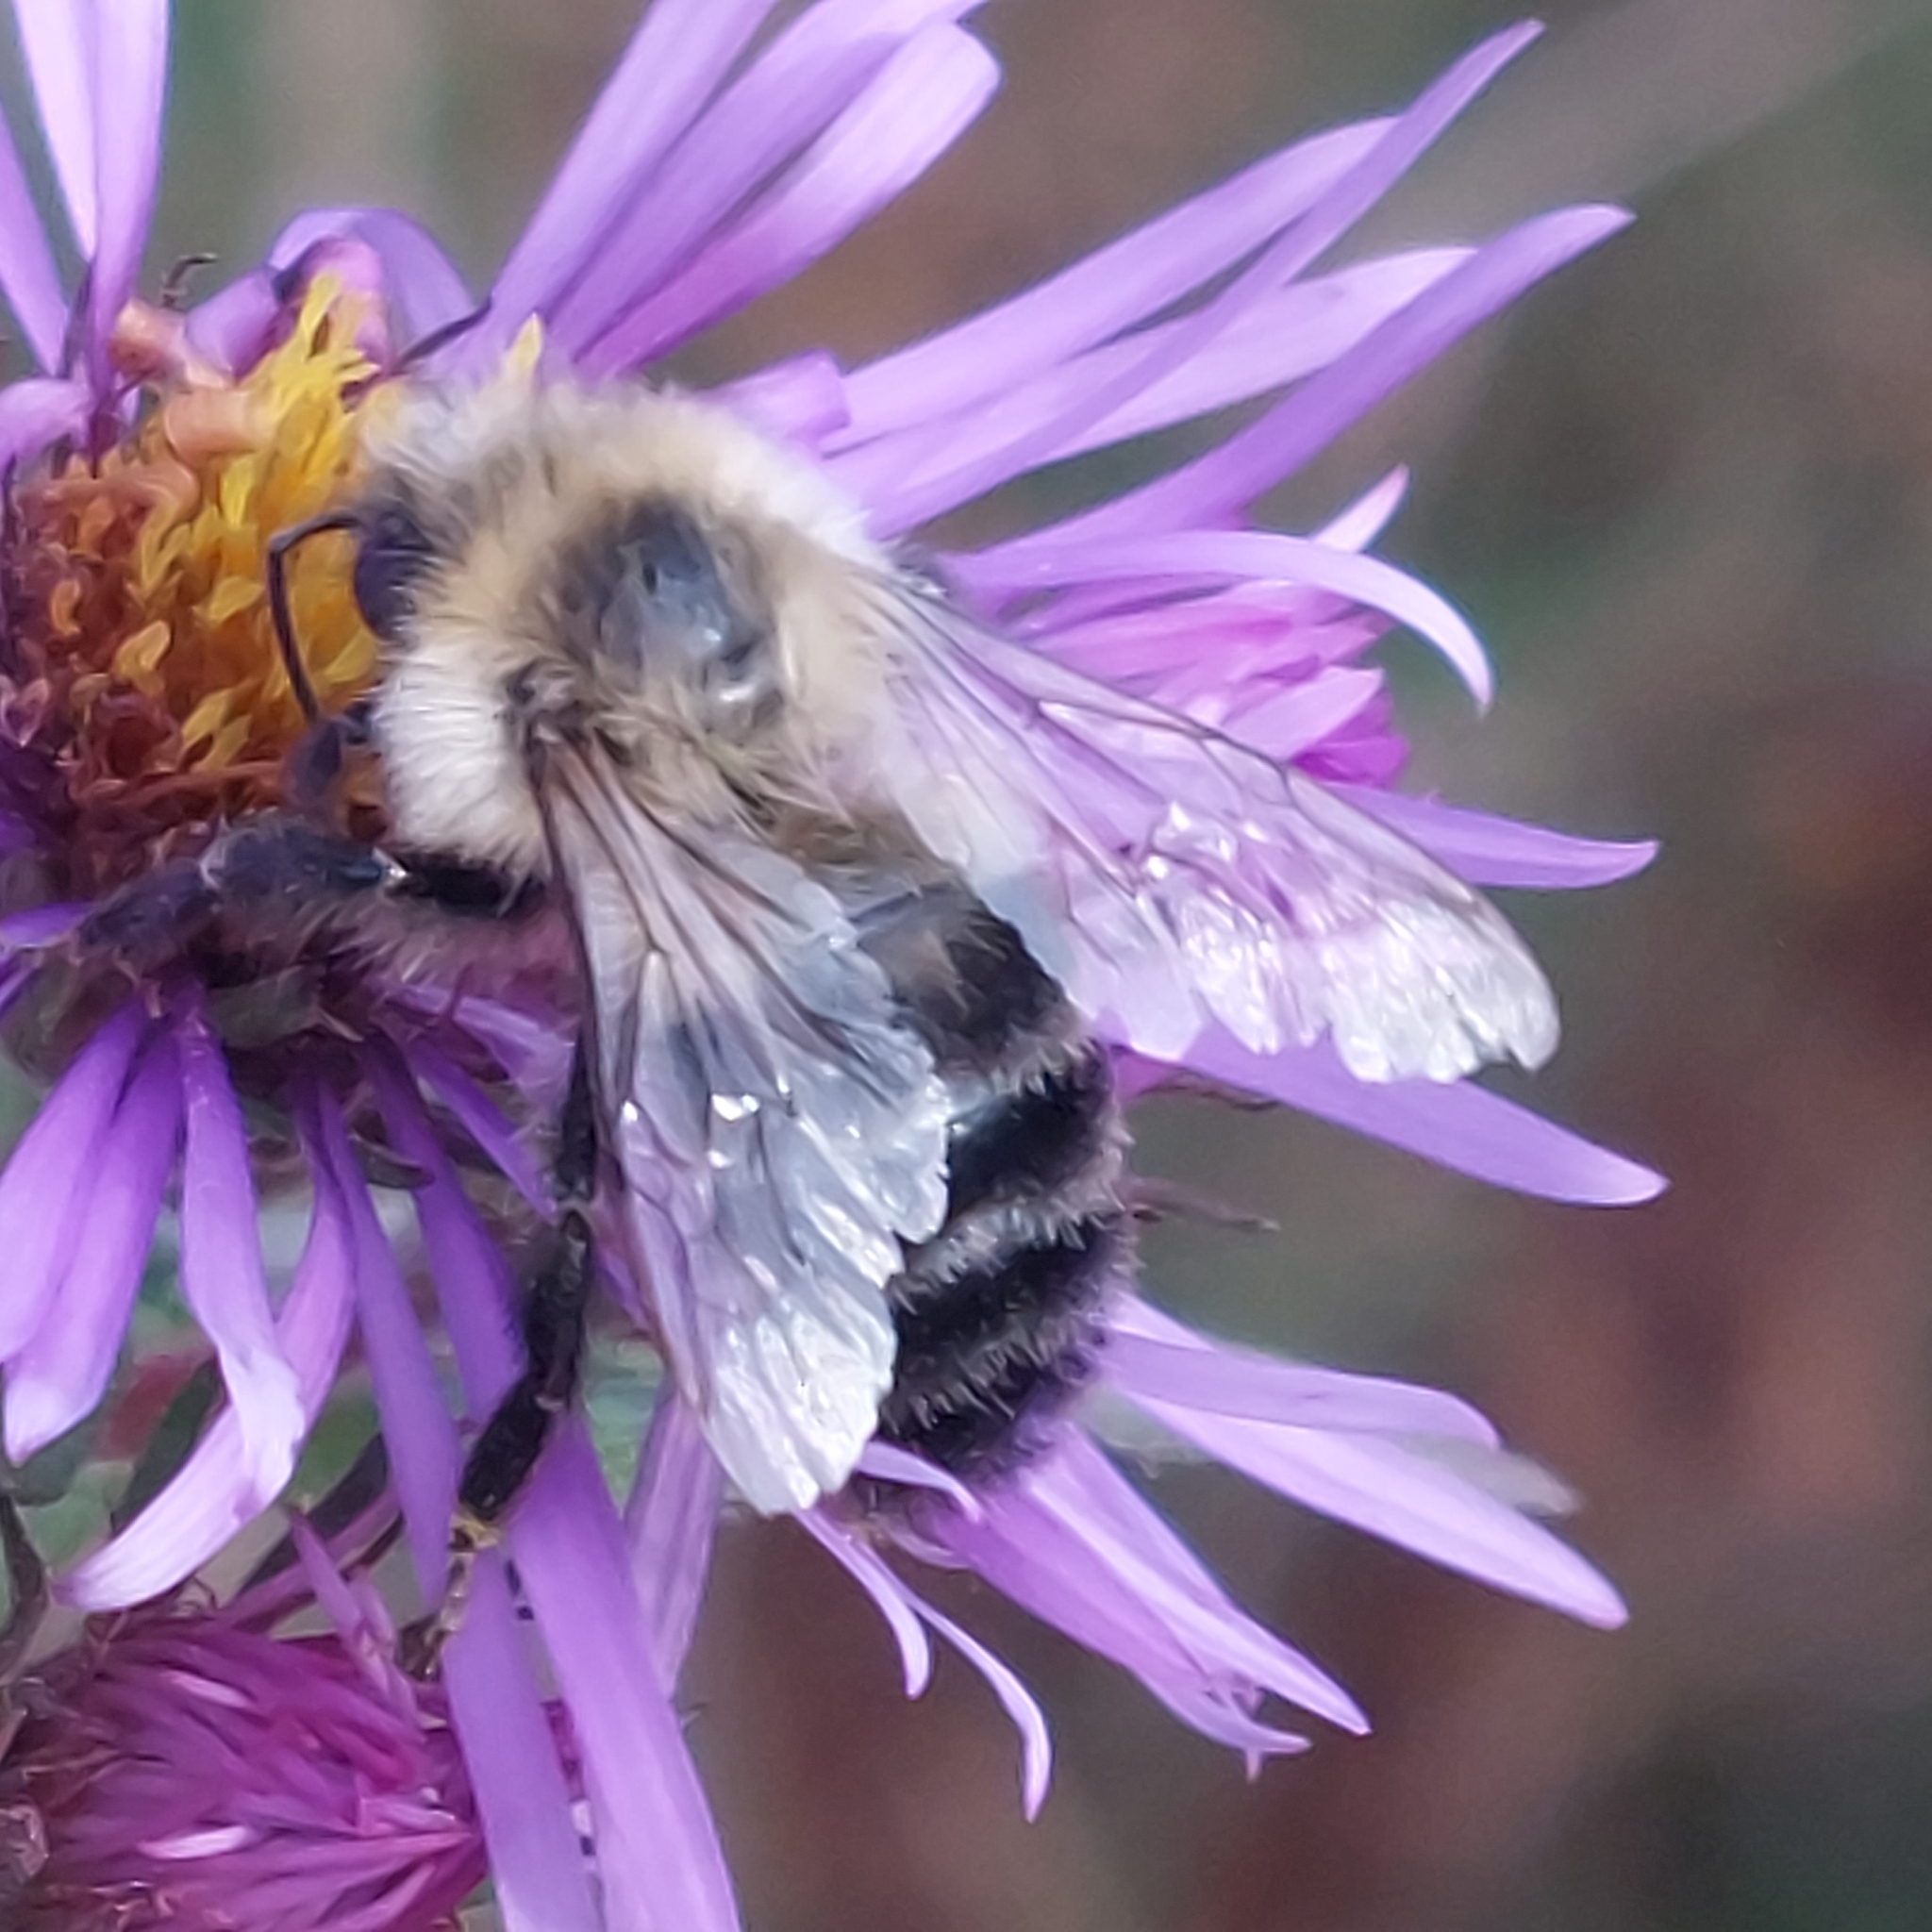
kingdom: Animalia
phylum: Arthropoda
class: Insecta
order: Hymenoptera
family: Apidae
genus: Bombus
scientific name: Bombus impatiens
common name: Common eastern bumble bee
